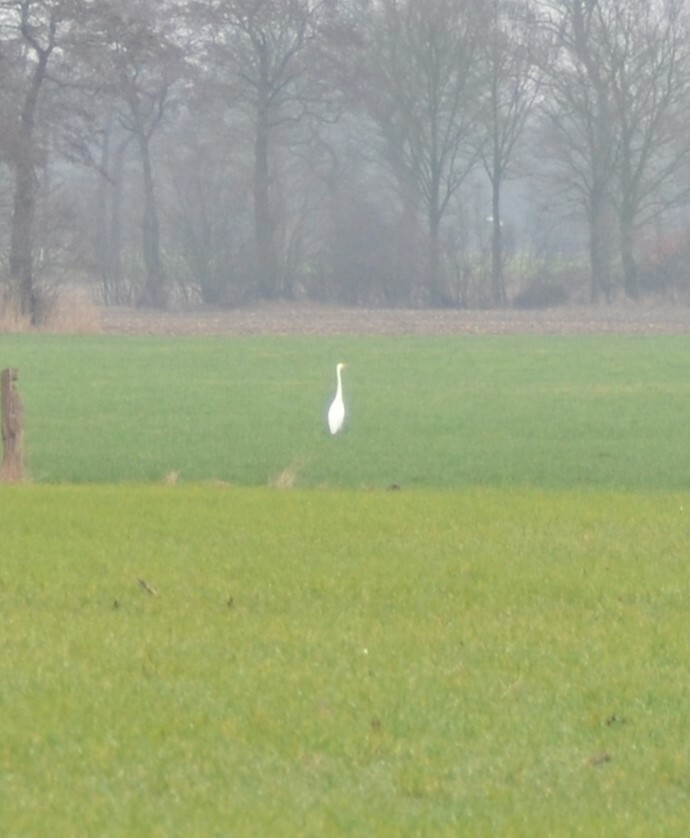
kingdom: Animalia
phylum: Chordata
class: Aves
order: Pelecaniformes
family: Ardeidae
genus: Ardea
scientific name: Ardea alba
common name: Great egret
